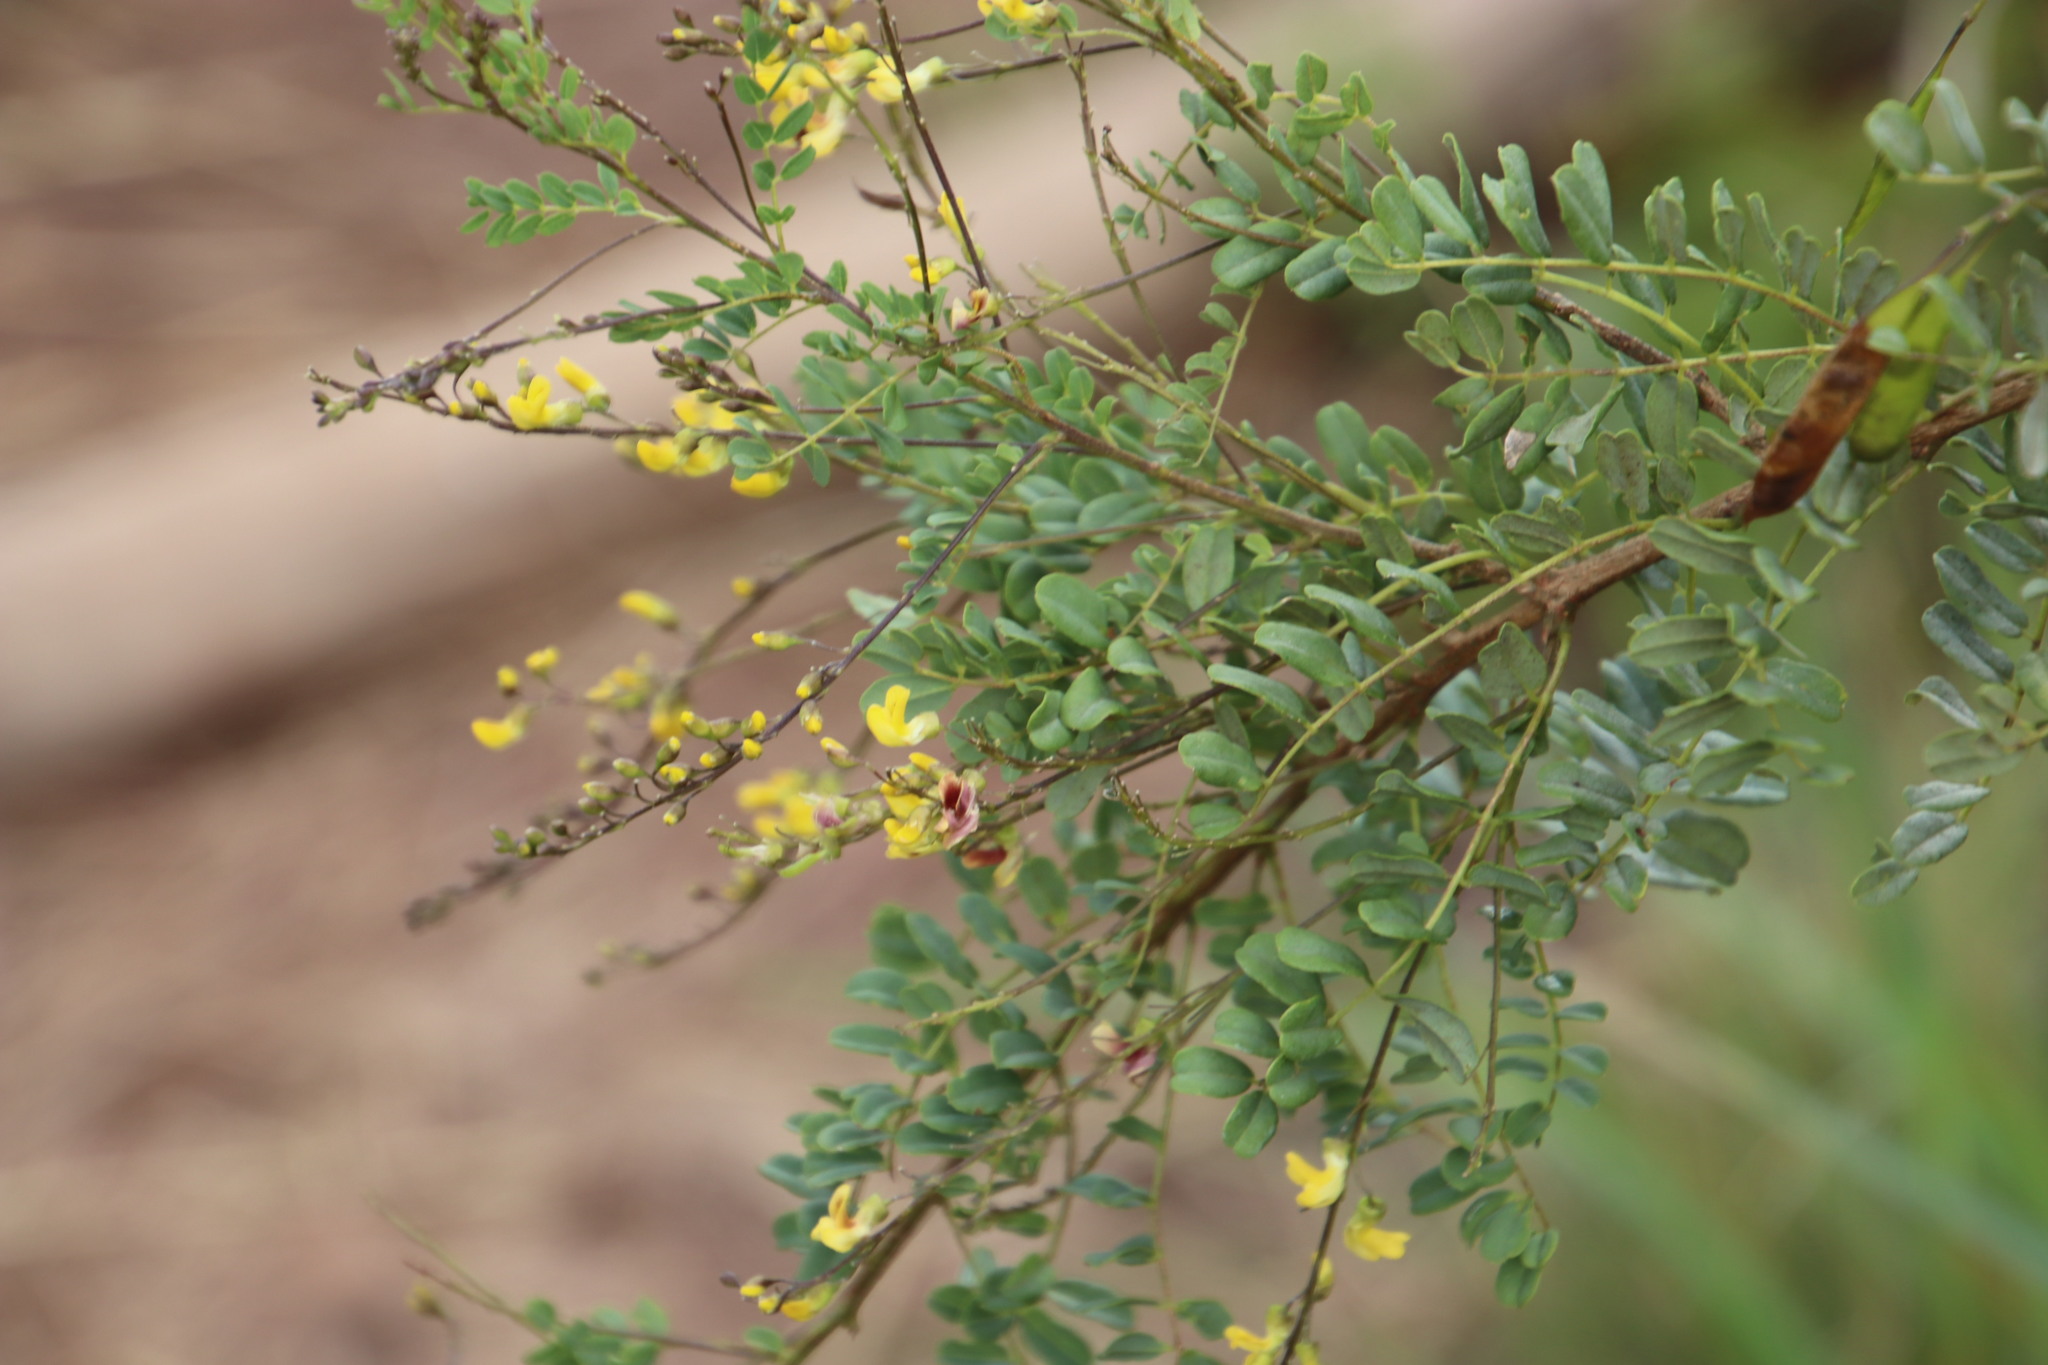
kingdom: Plantae
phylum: Tracheophyta
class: Magnoliopsida
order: Fabales
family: Fabaceae
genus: Calpurnia
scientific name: Calpurnia sericea
